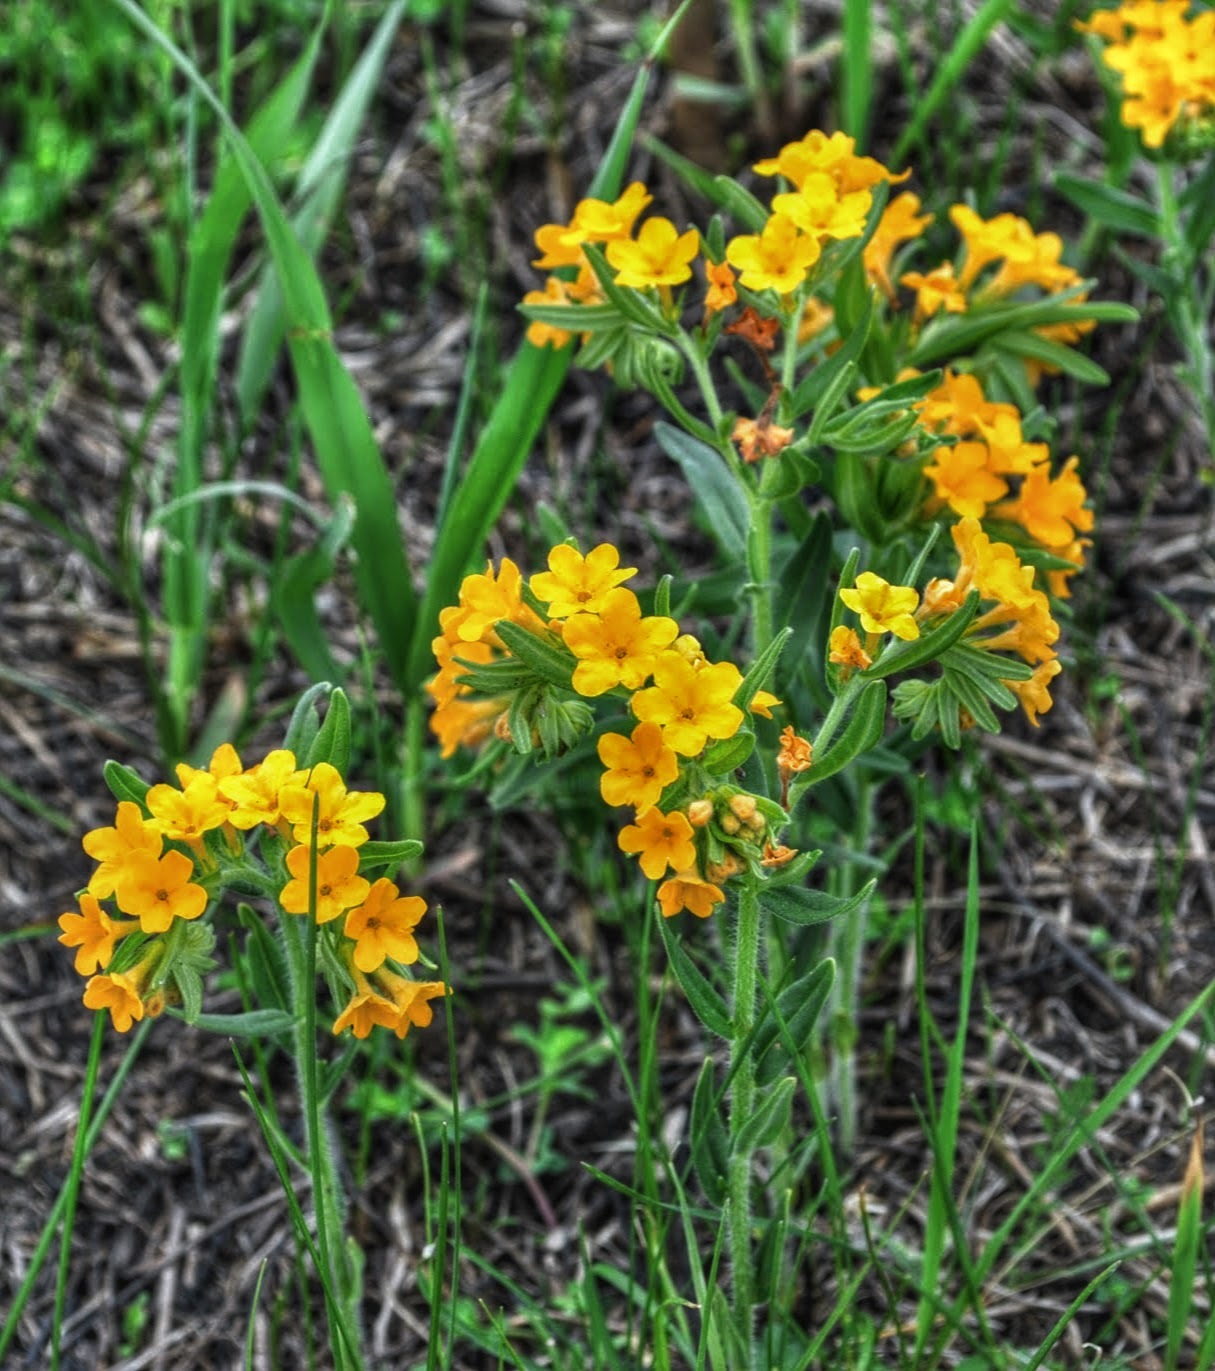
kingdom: Plantae
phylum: Tracheophyta
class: Magnoliopsida
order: Boraginales
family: Boraginaceae
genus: Lithospermum
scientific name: Lithospermum canescens
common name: Hoary puccoon
